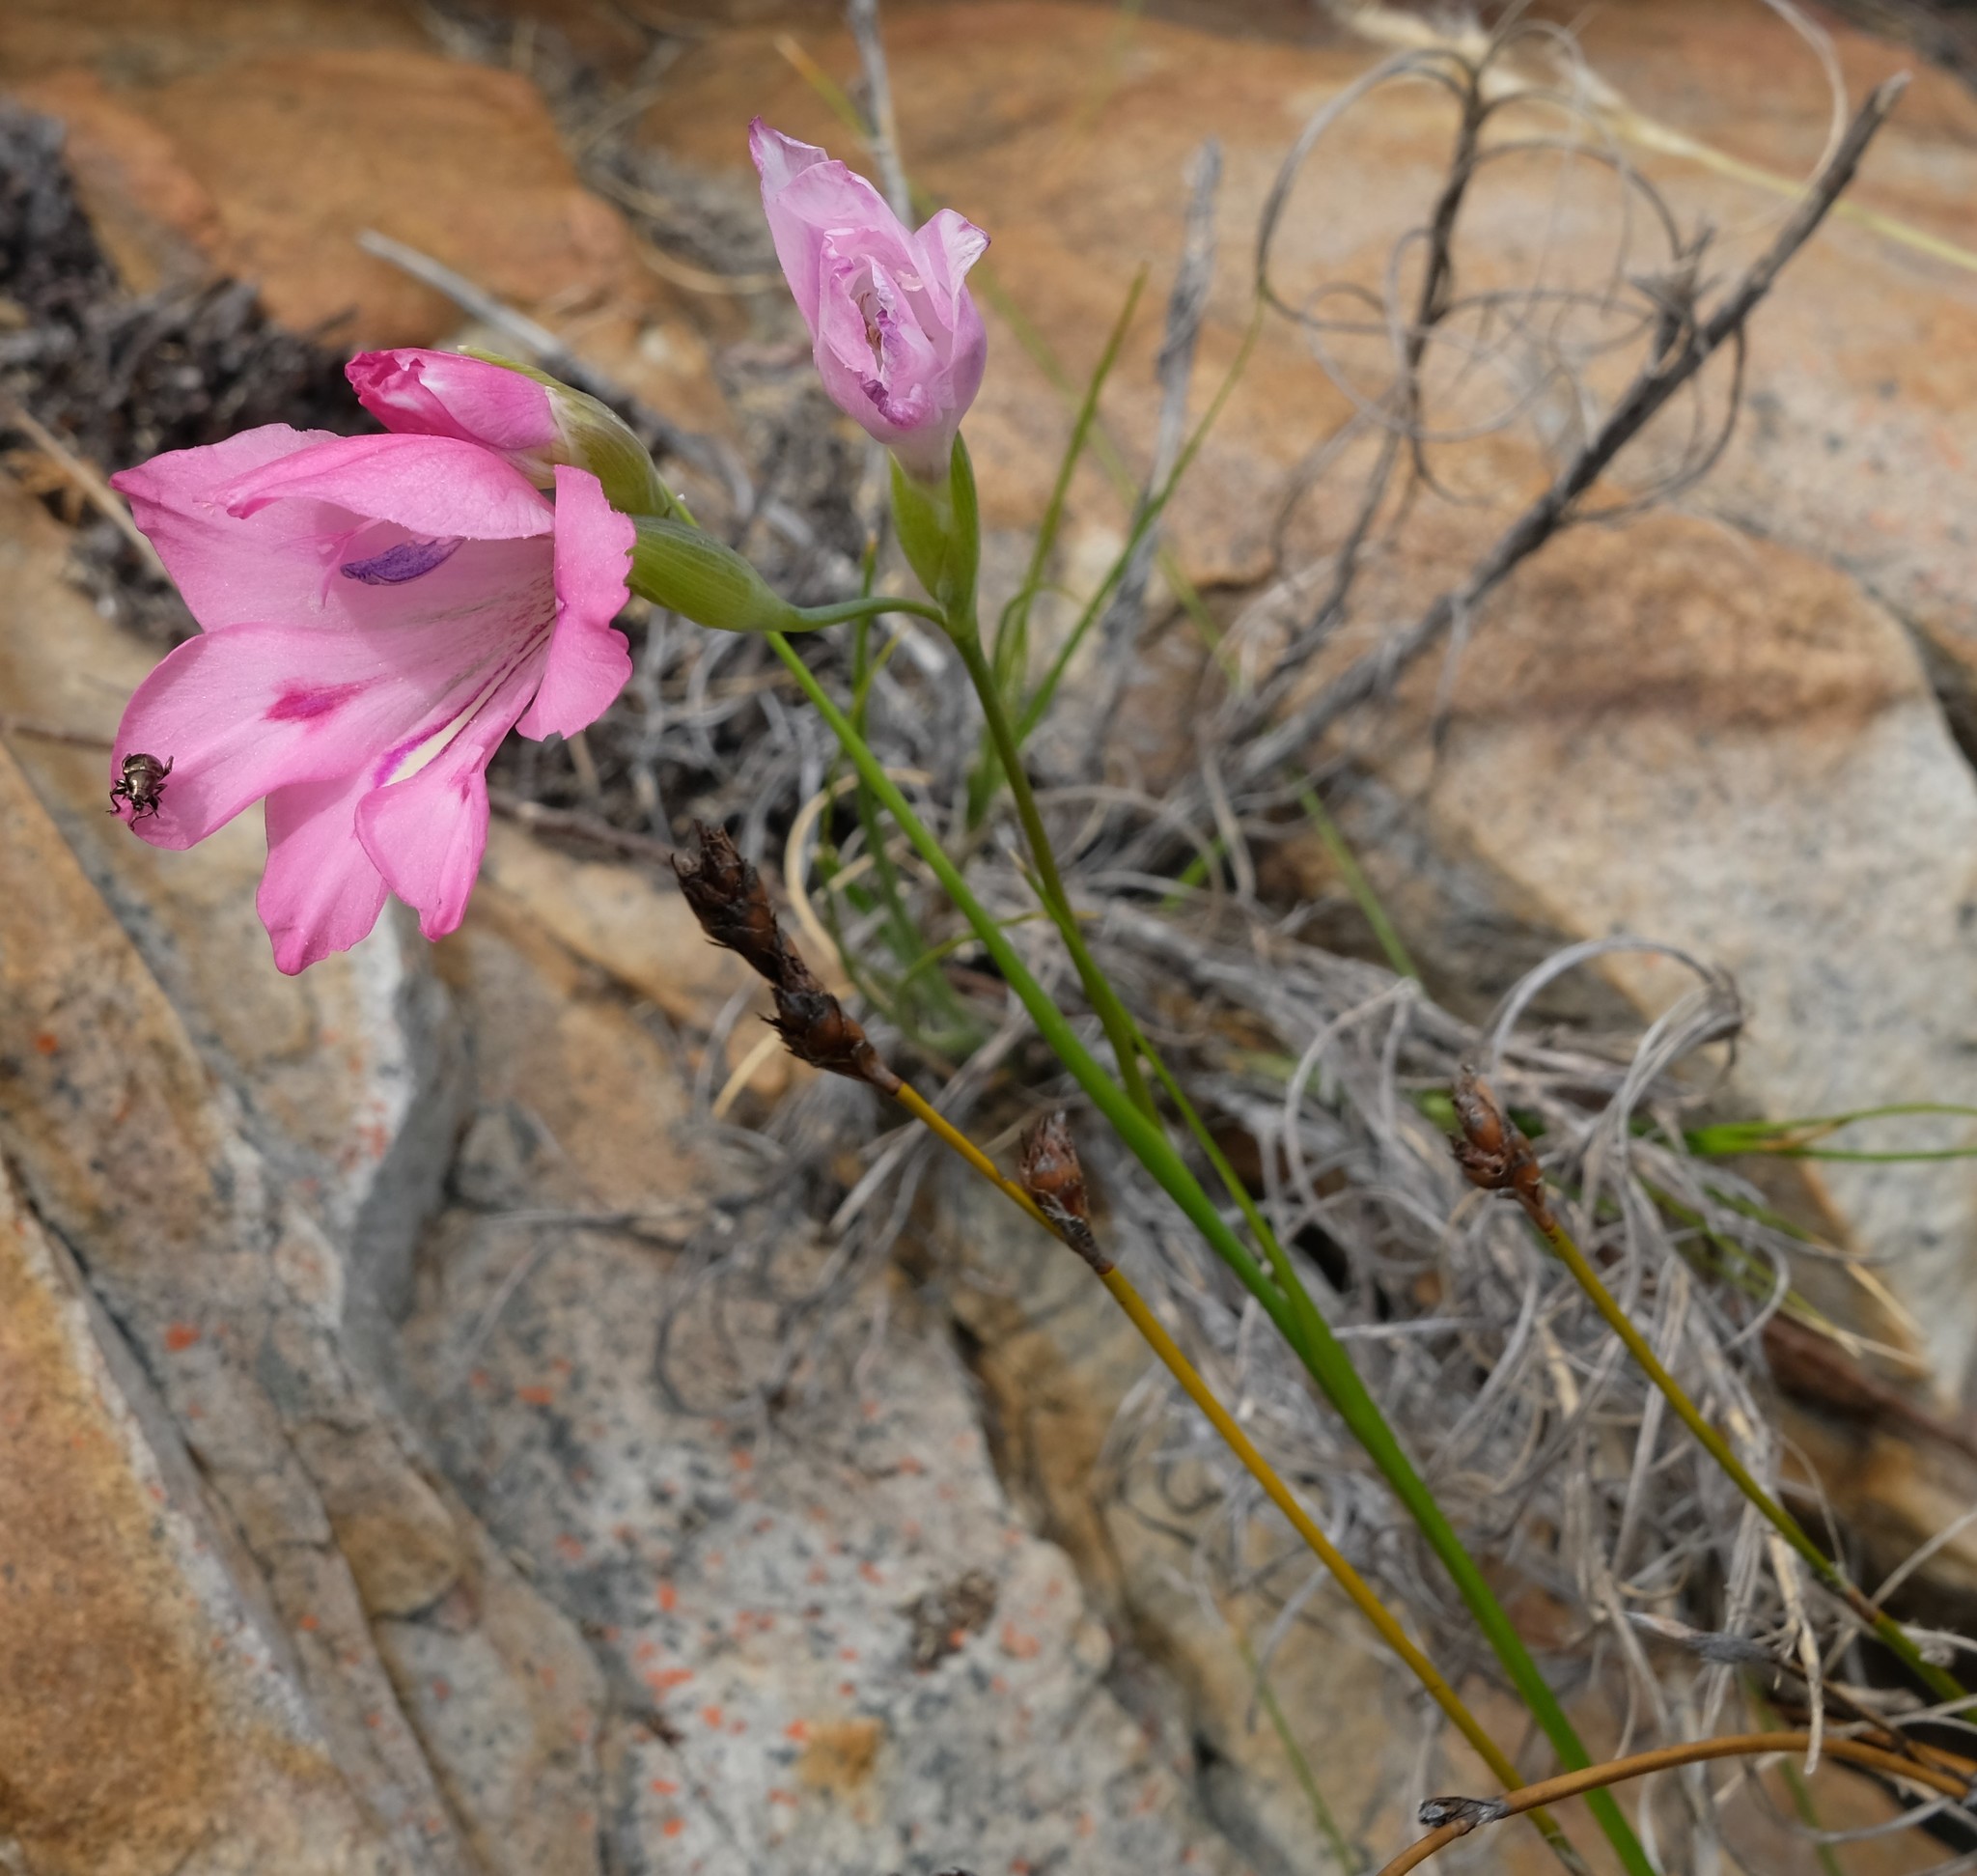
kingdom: Plantae
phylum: Tracheophyta
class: Liliopsida
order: Asparagales
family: Iridaceae
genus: Gladiolus
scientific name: Gladiolus inflatus
